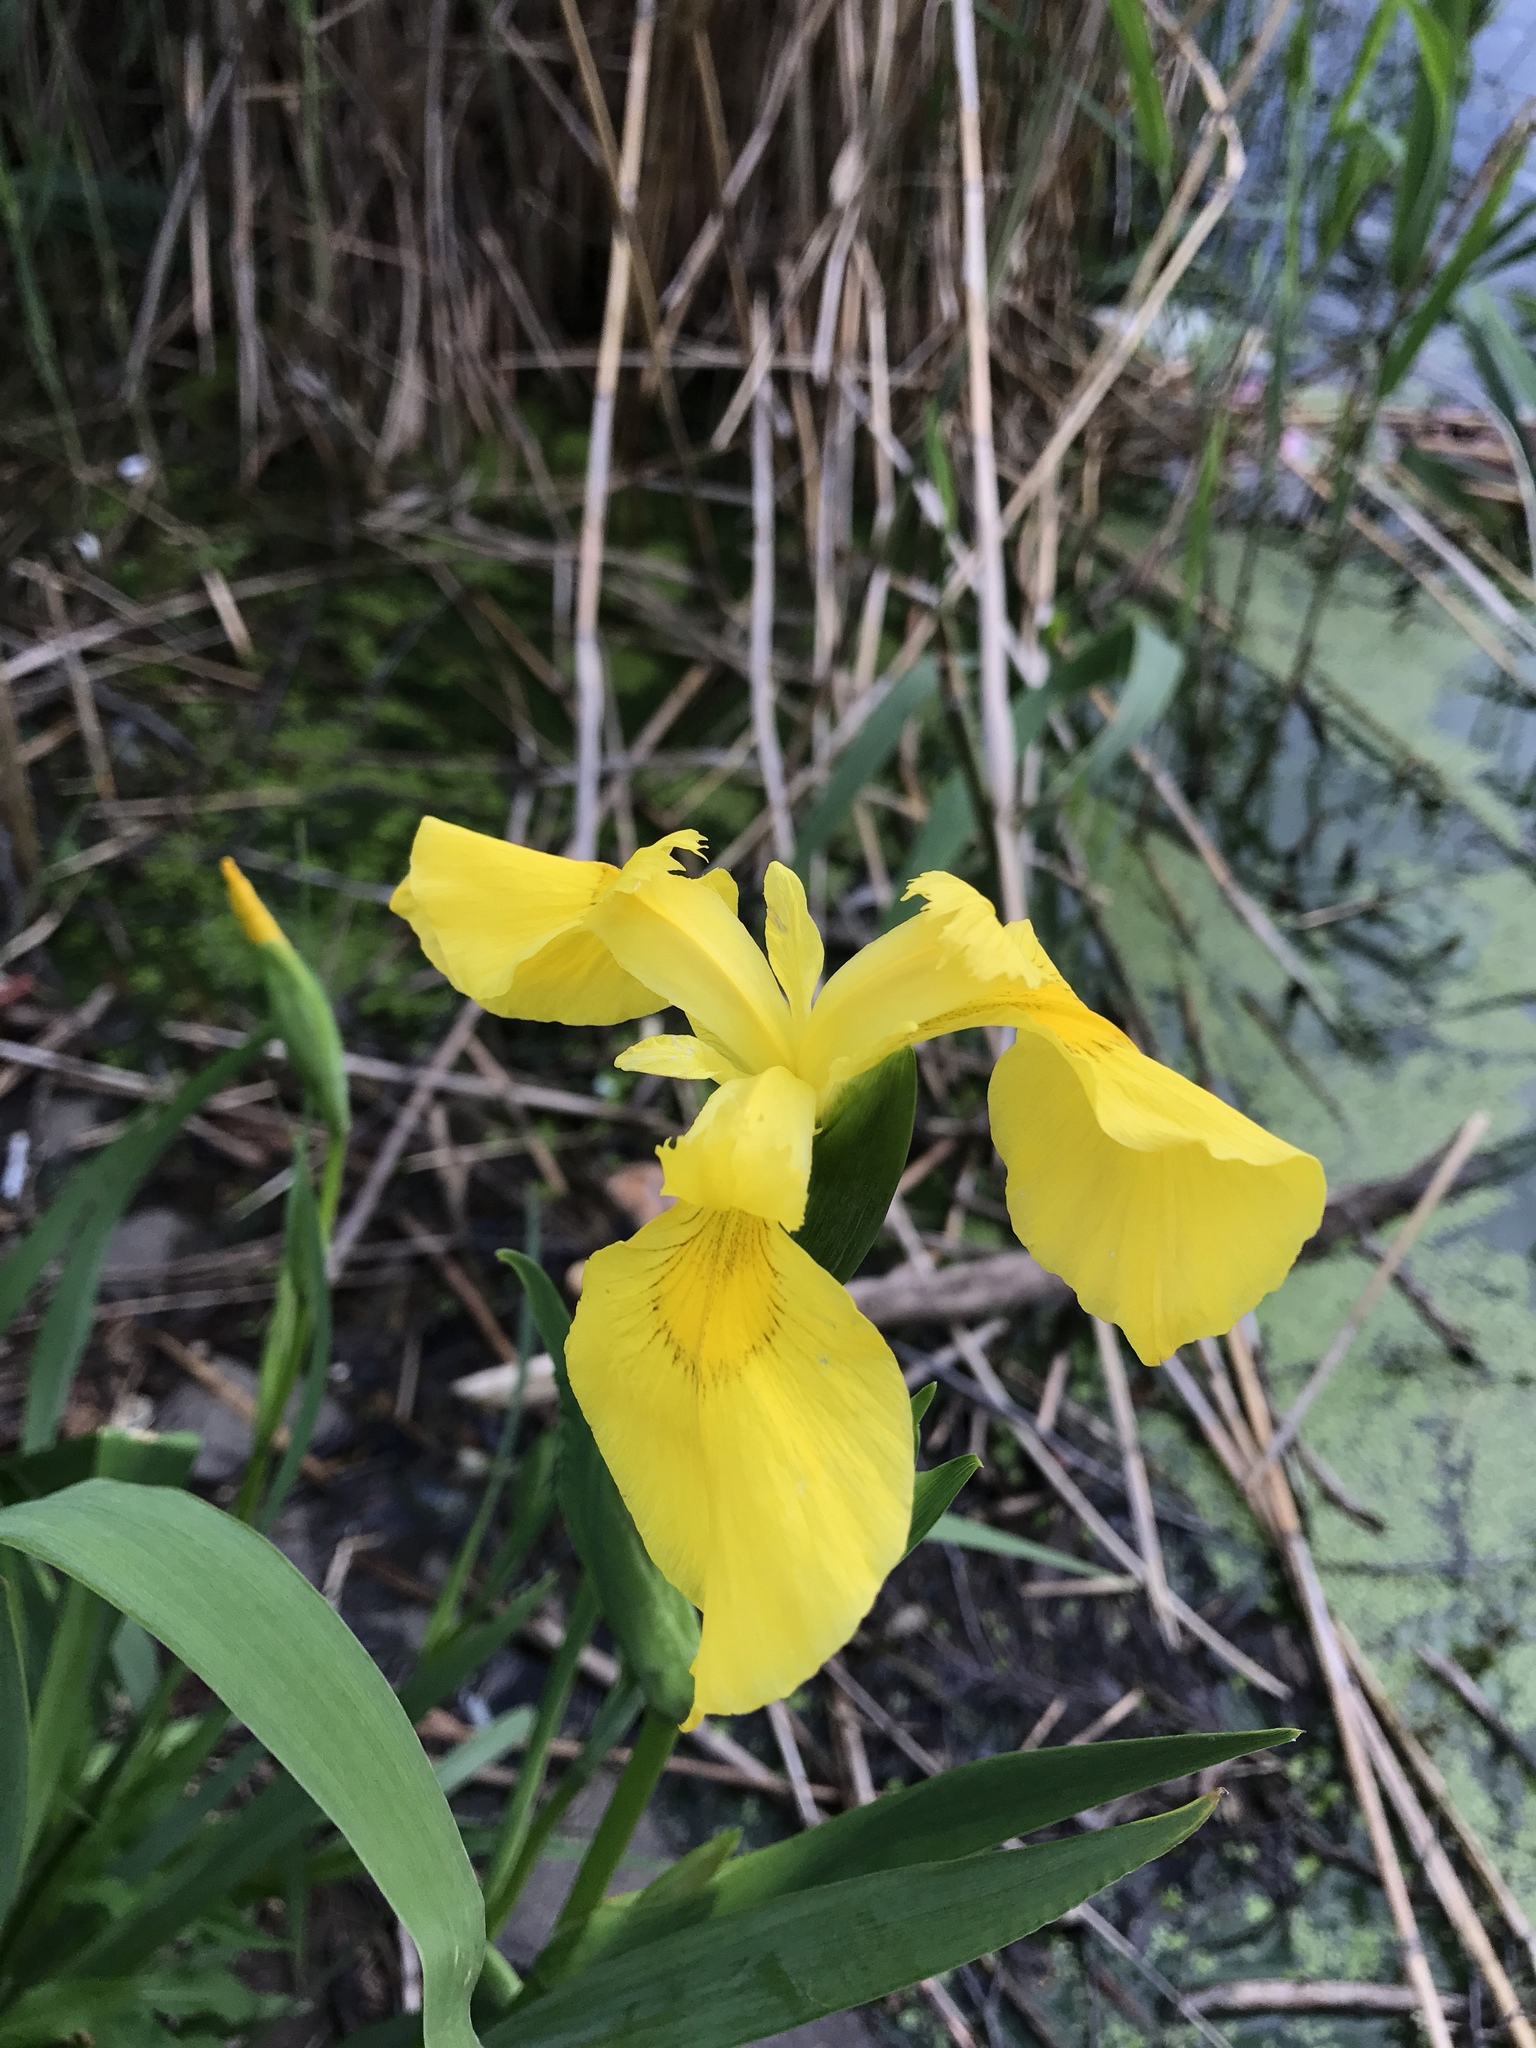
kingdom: Plantae
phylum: Tracheophyta
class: Liliopsida
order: Asparagales
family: Iridaceae
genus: Iris
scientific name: Iris pseudacorus
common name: Yellow flag
